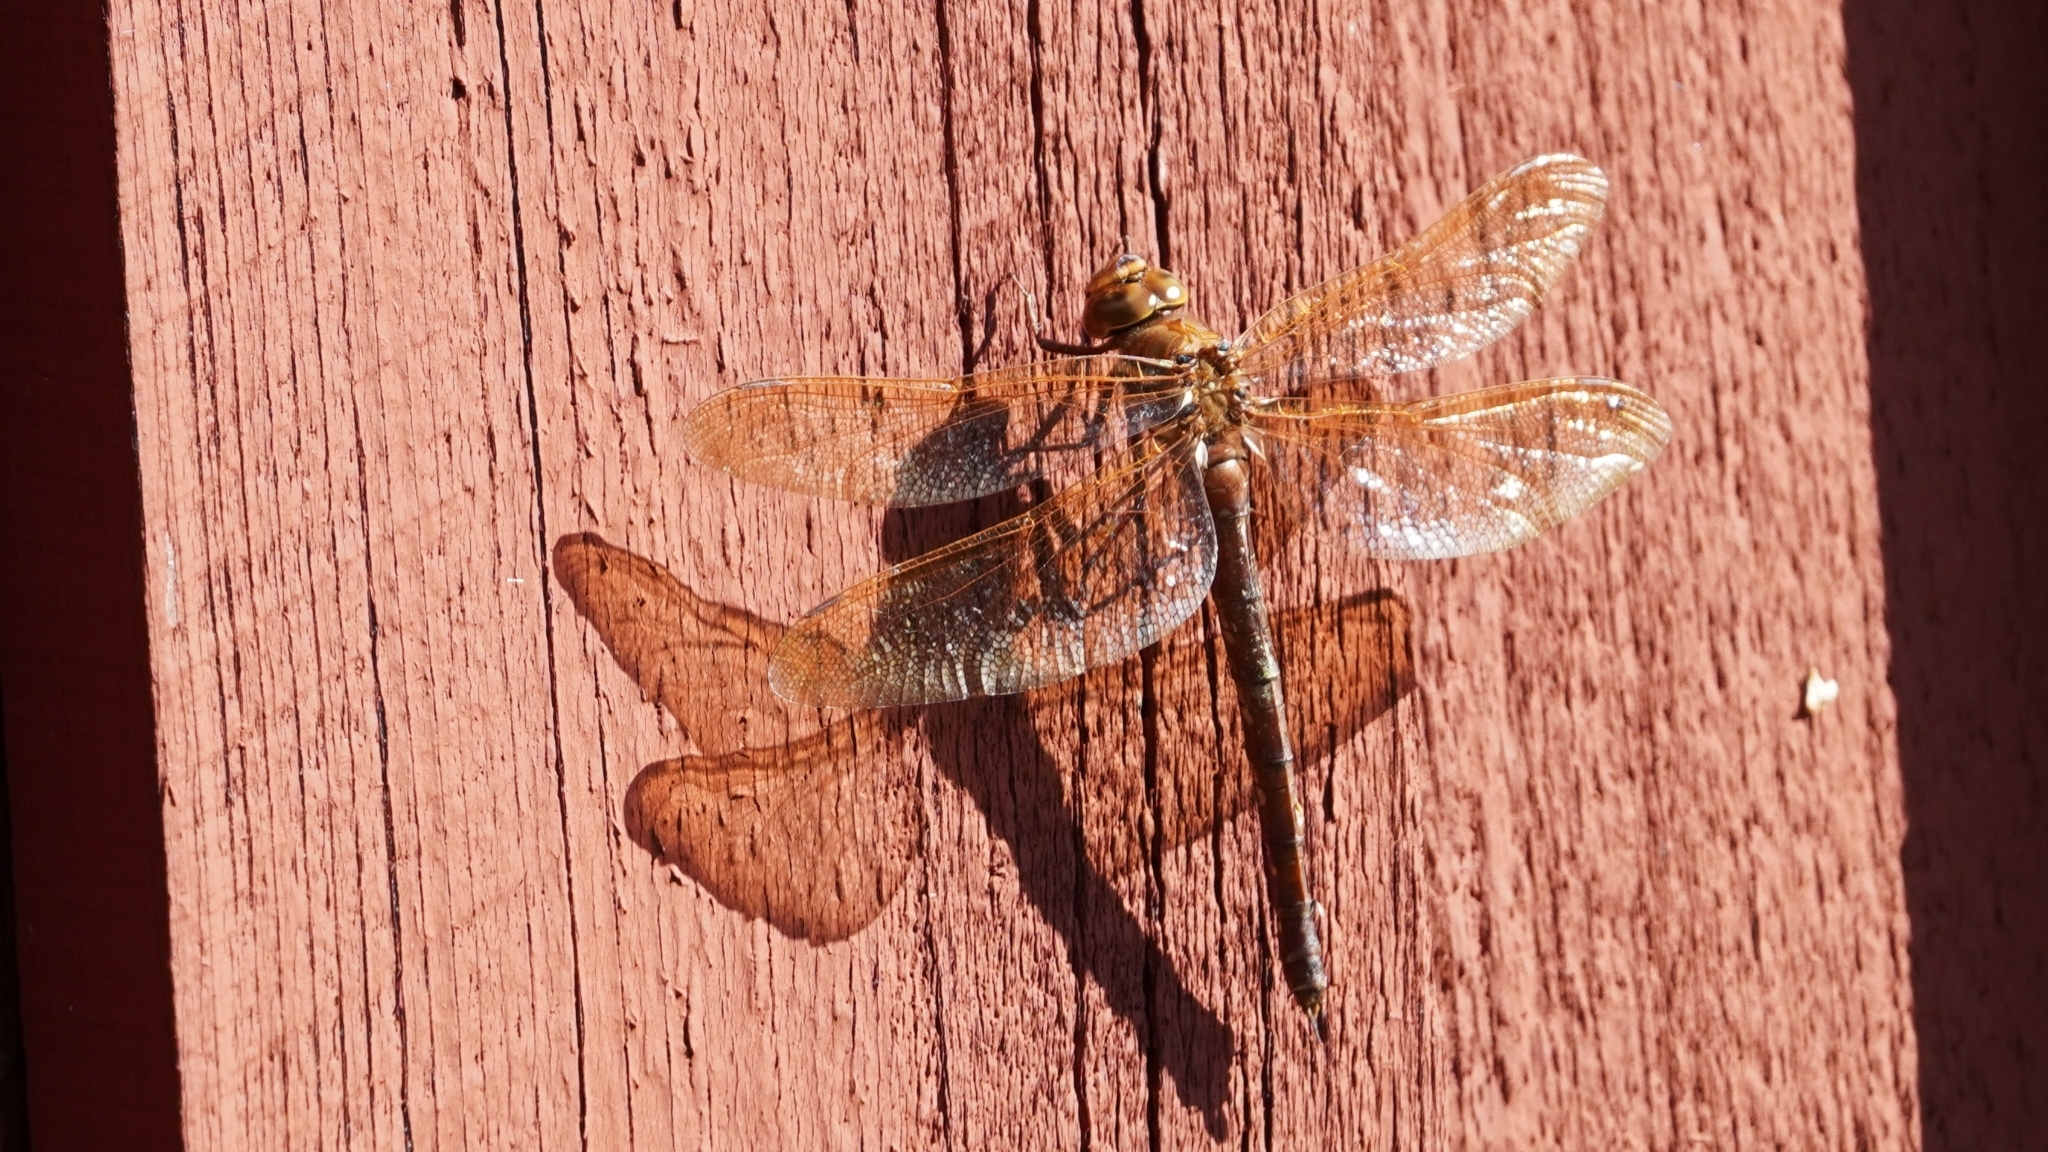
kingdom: Animalia
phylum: Arthropoda
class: Insecta
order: Odonata
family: Aeshnidae
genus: Aeshna
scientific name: Aeshna grandis
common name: Brown hawker
